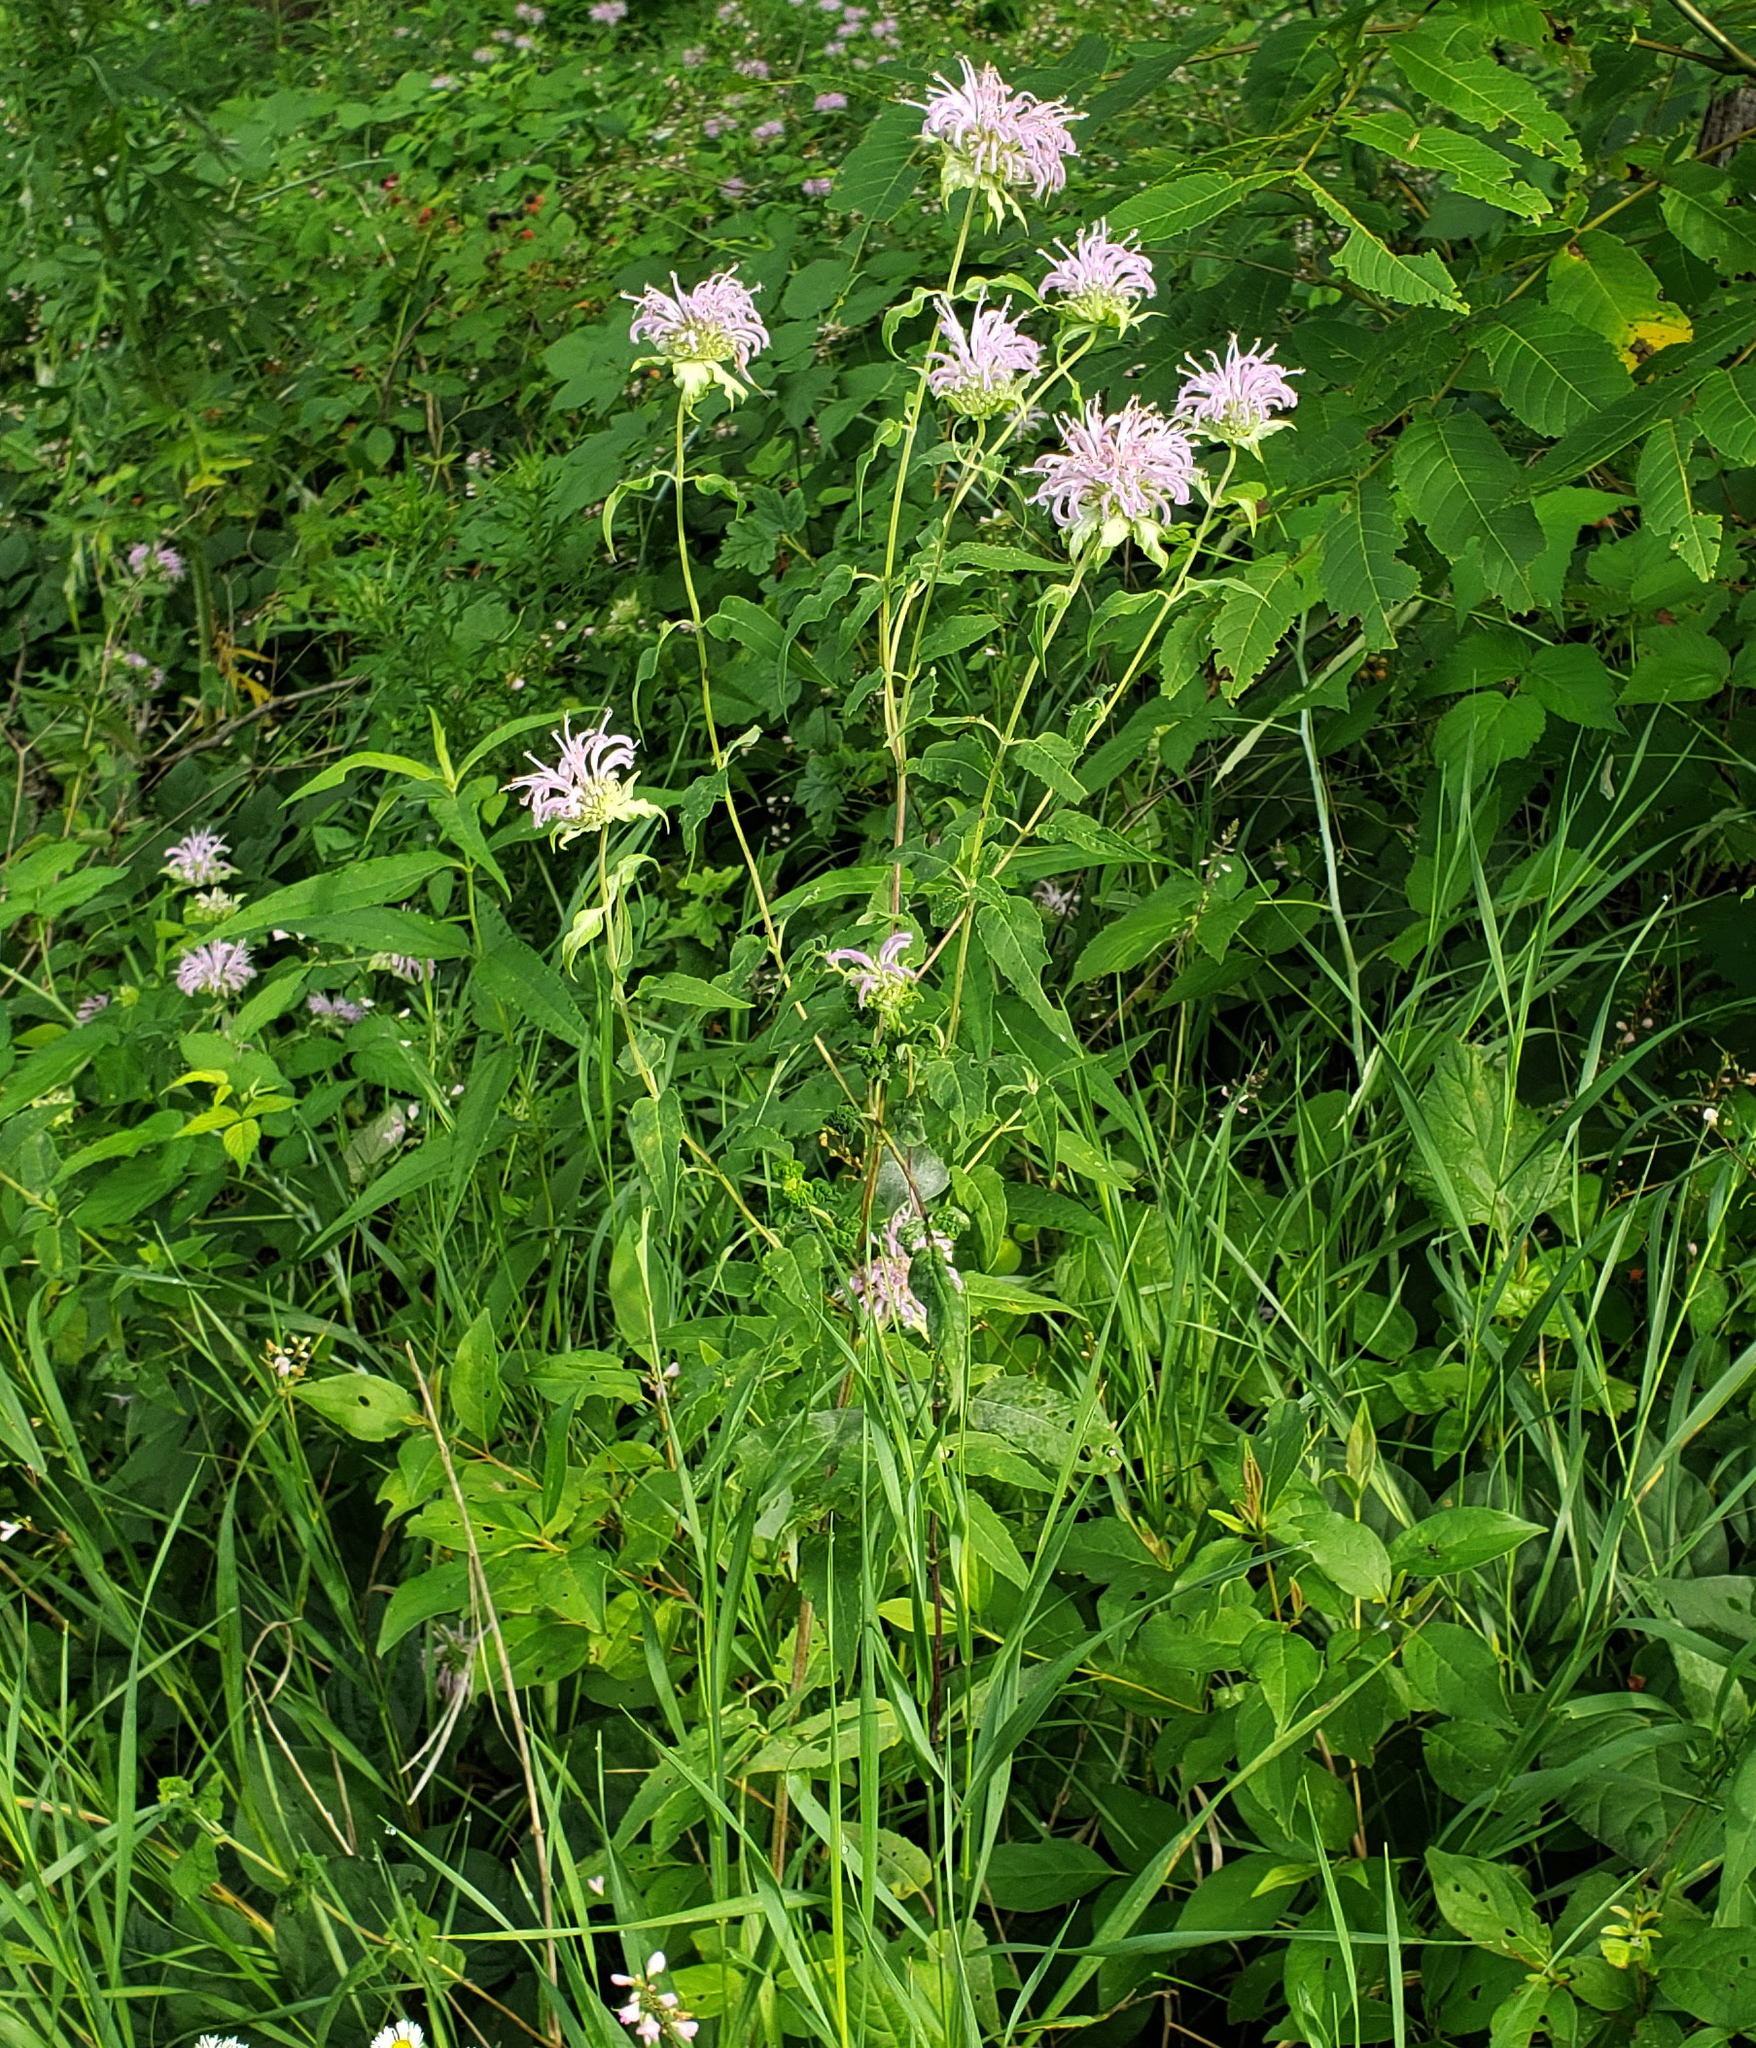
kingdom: Plantae
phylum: Tracheophyta
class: Magnoliopsida
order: Lamiales
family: Lamiaceae
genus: Monarda
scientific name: Monarda fistulosa
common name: Purple beebalm
